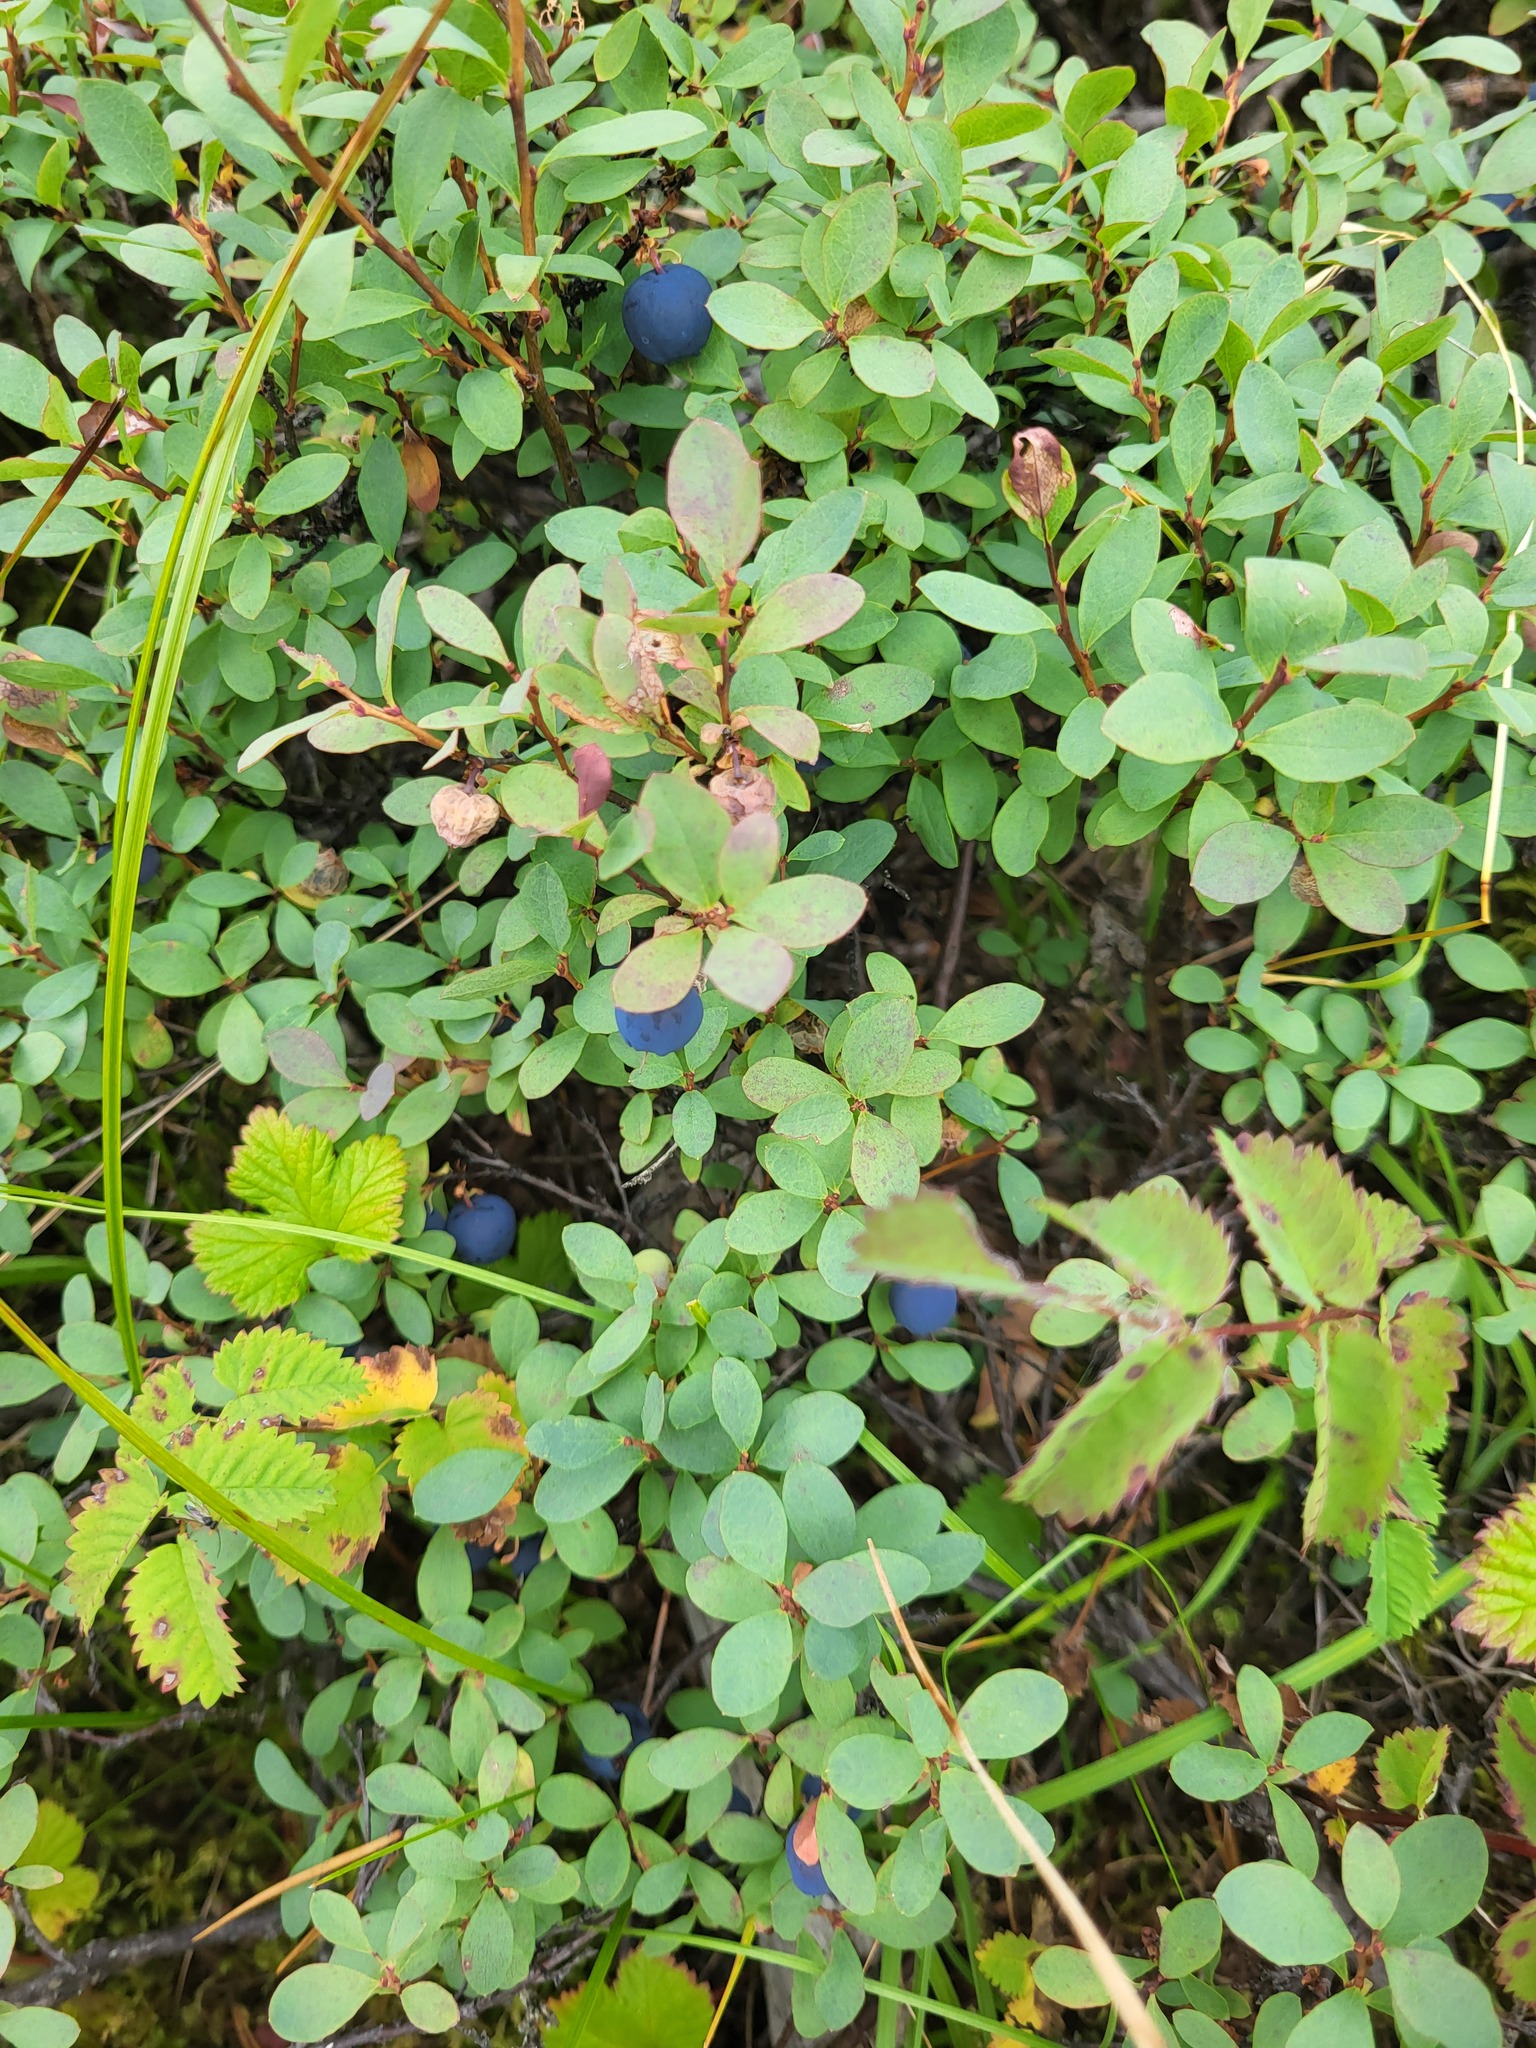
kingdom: Plantae
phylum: Tracheophyta
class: Magnoliopsida
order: Ericales
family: Ericaceae
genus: Vaccinium
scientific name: Vaccinium uliginosum
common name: Bog bilberry
